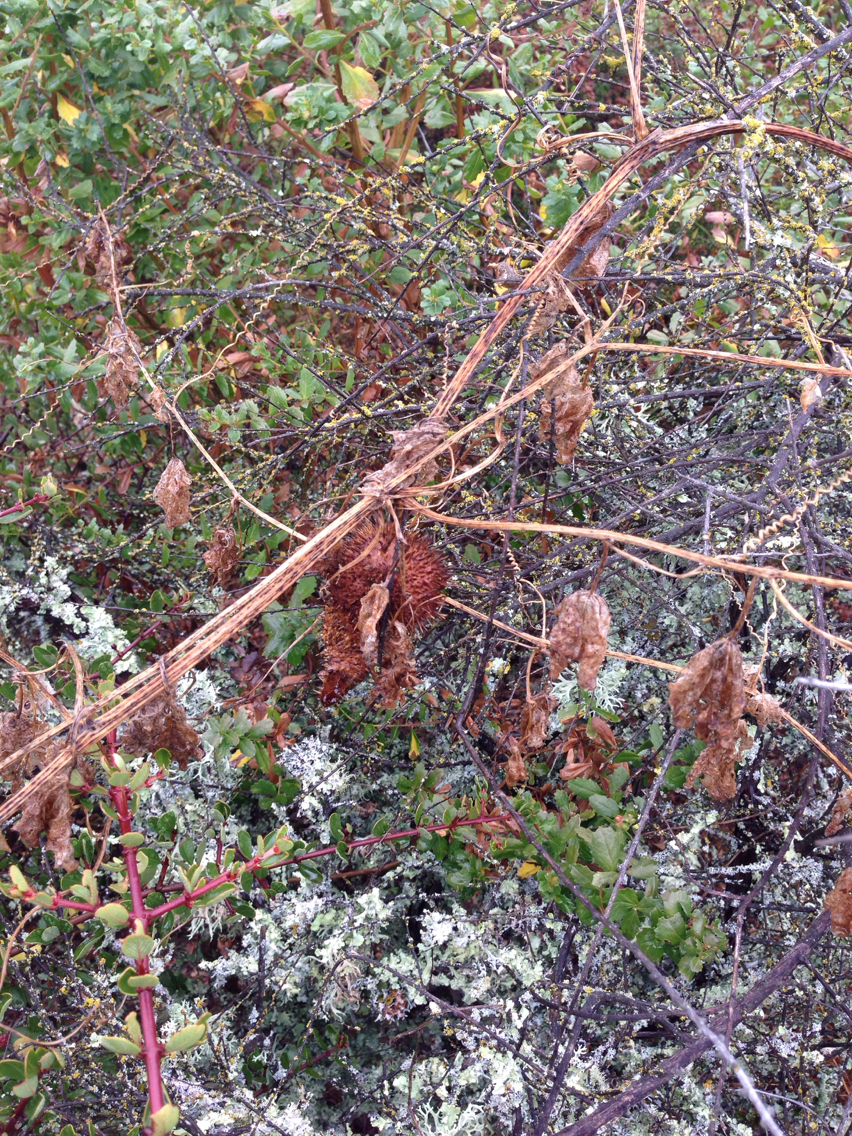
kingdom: Plantae
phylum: Tracheophyta
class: Magnoliopsida
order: Cucurbitales
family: Cucurbitaceae
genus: Marah
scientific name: Marah fabacea
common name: California manroot
